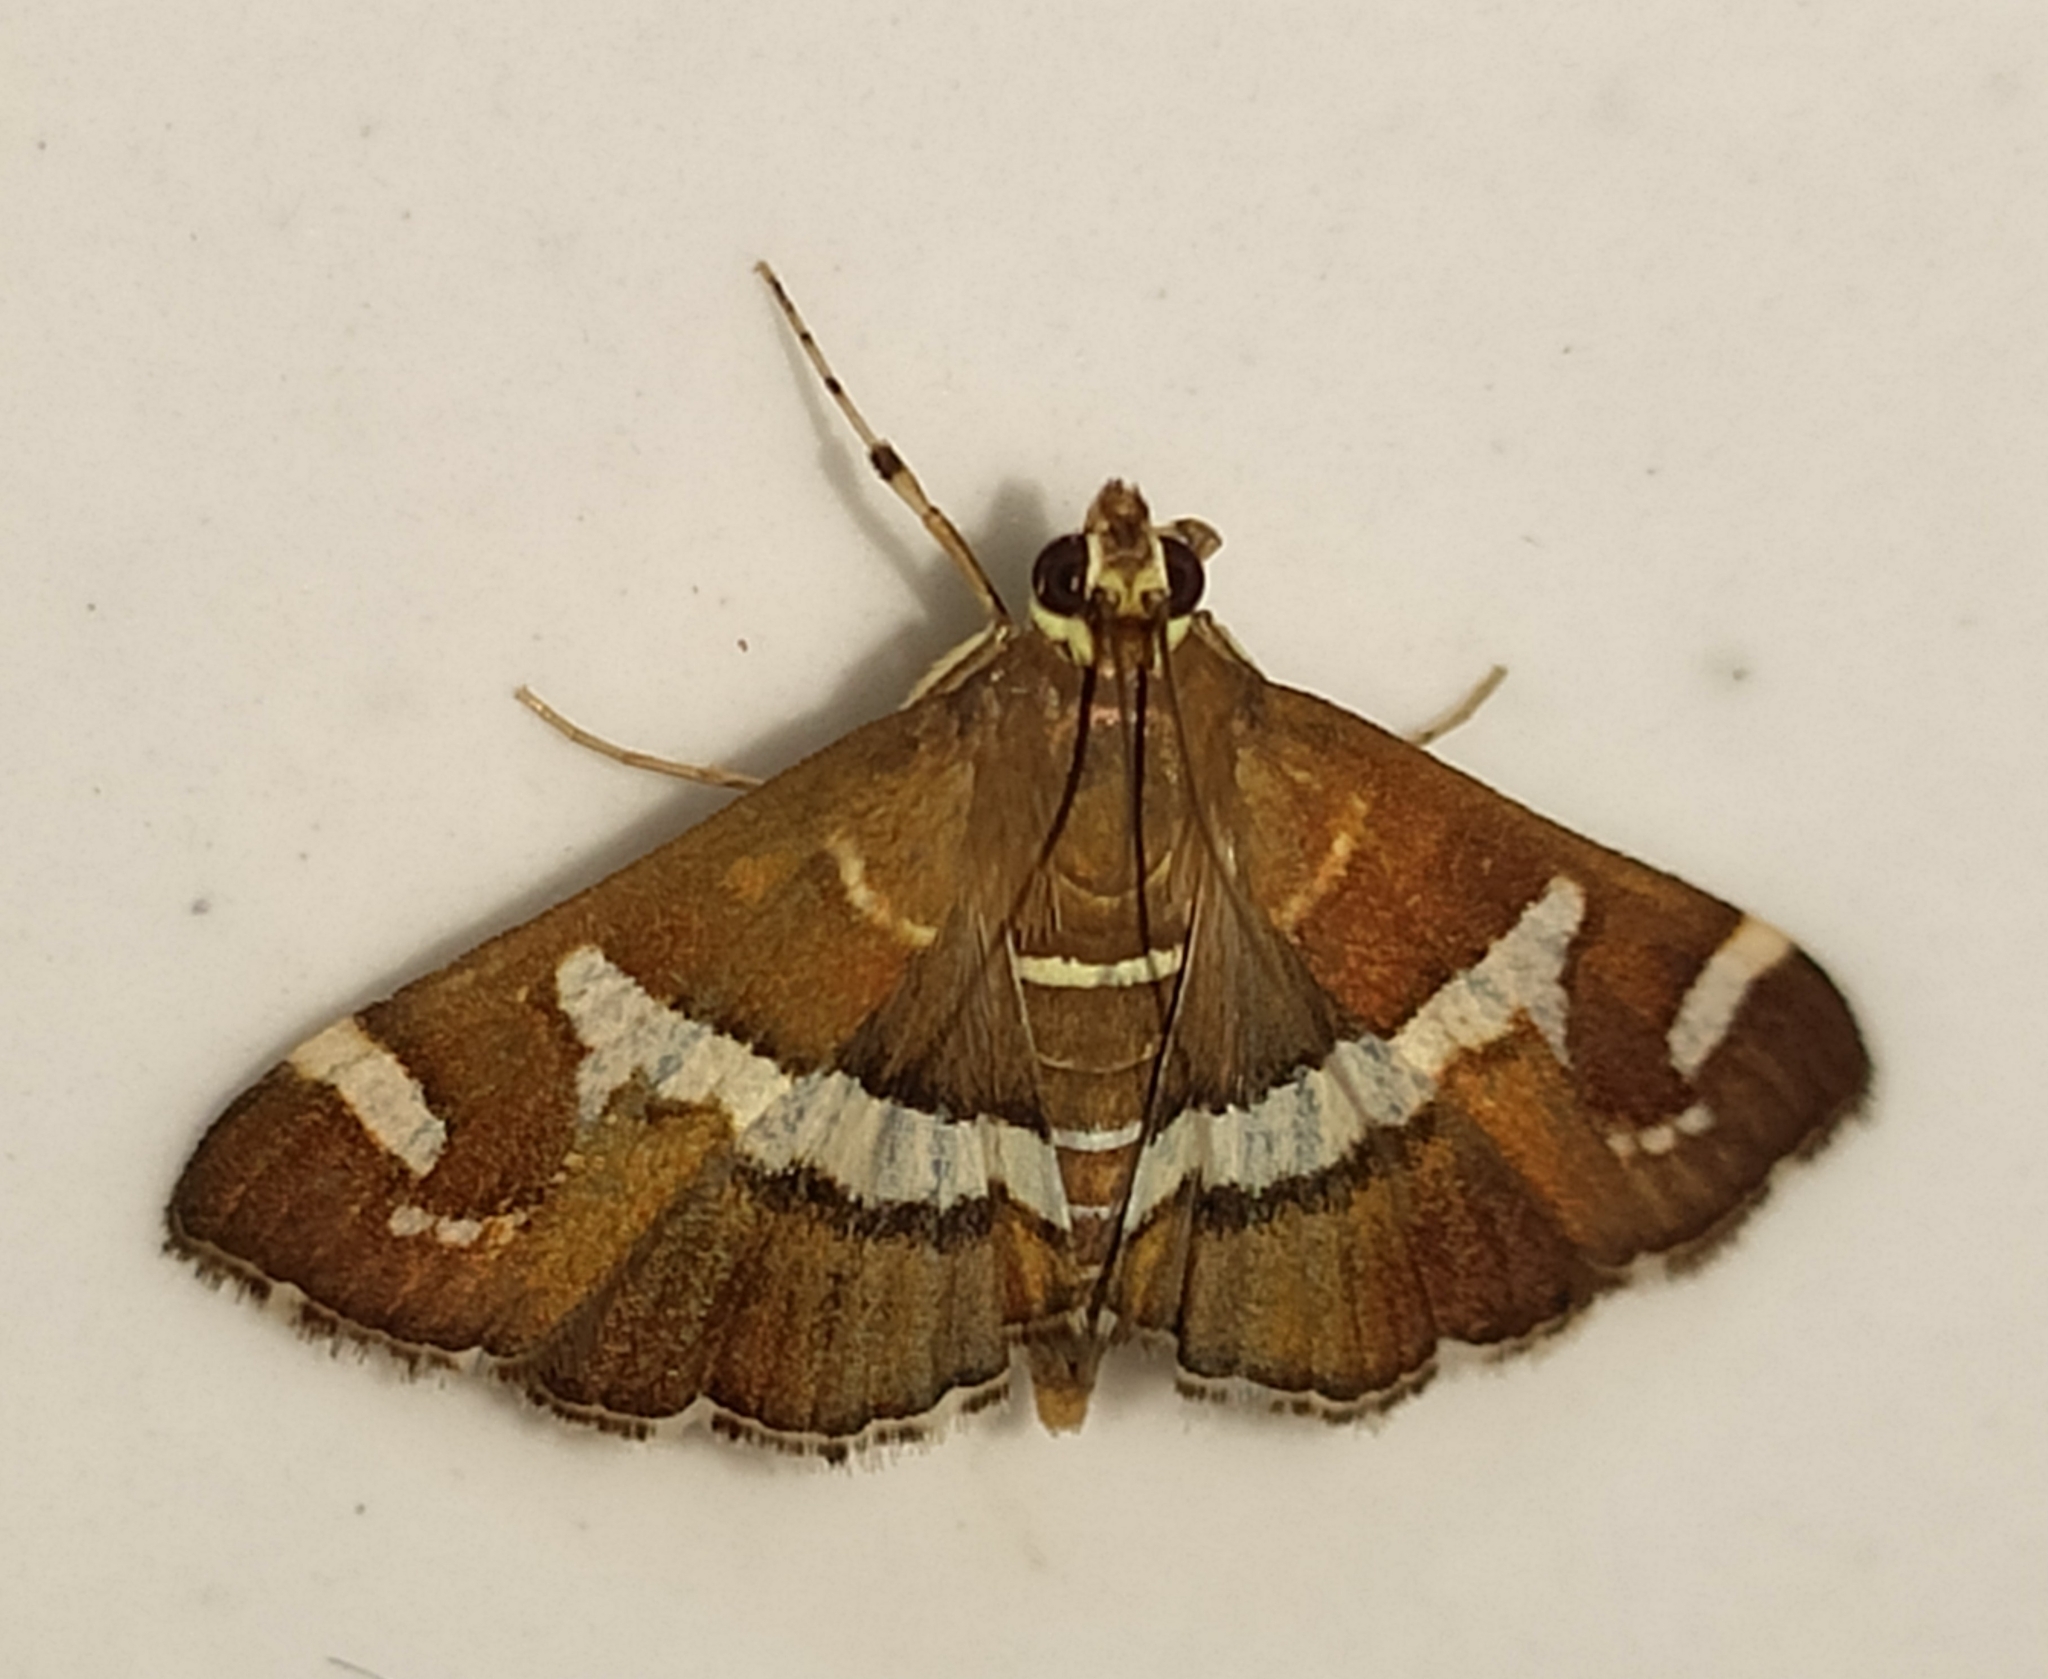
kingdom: Animalia
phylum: Arthropoda
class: Insecta
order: Lepidoptera
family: Crambidae
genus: Spoladea
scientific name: Spoladea recurvalis
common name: Beet webworm moth
